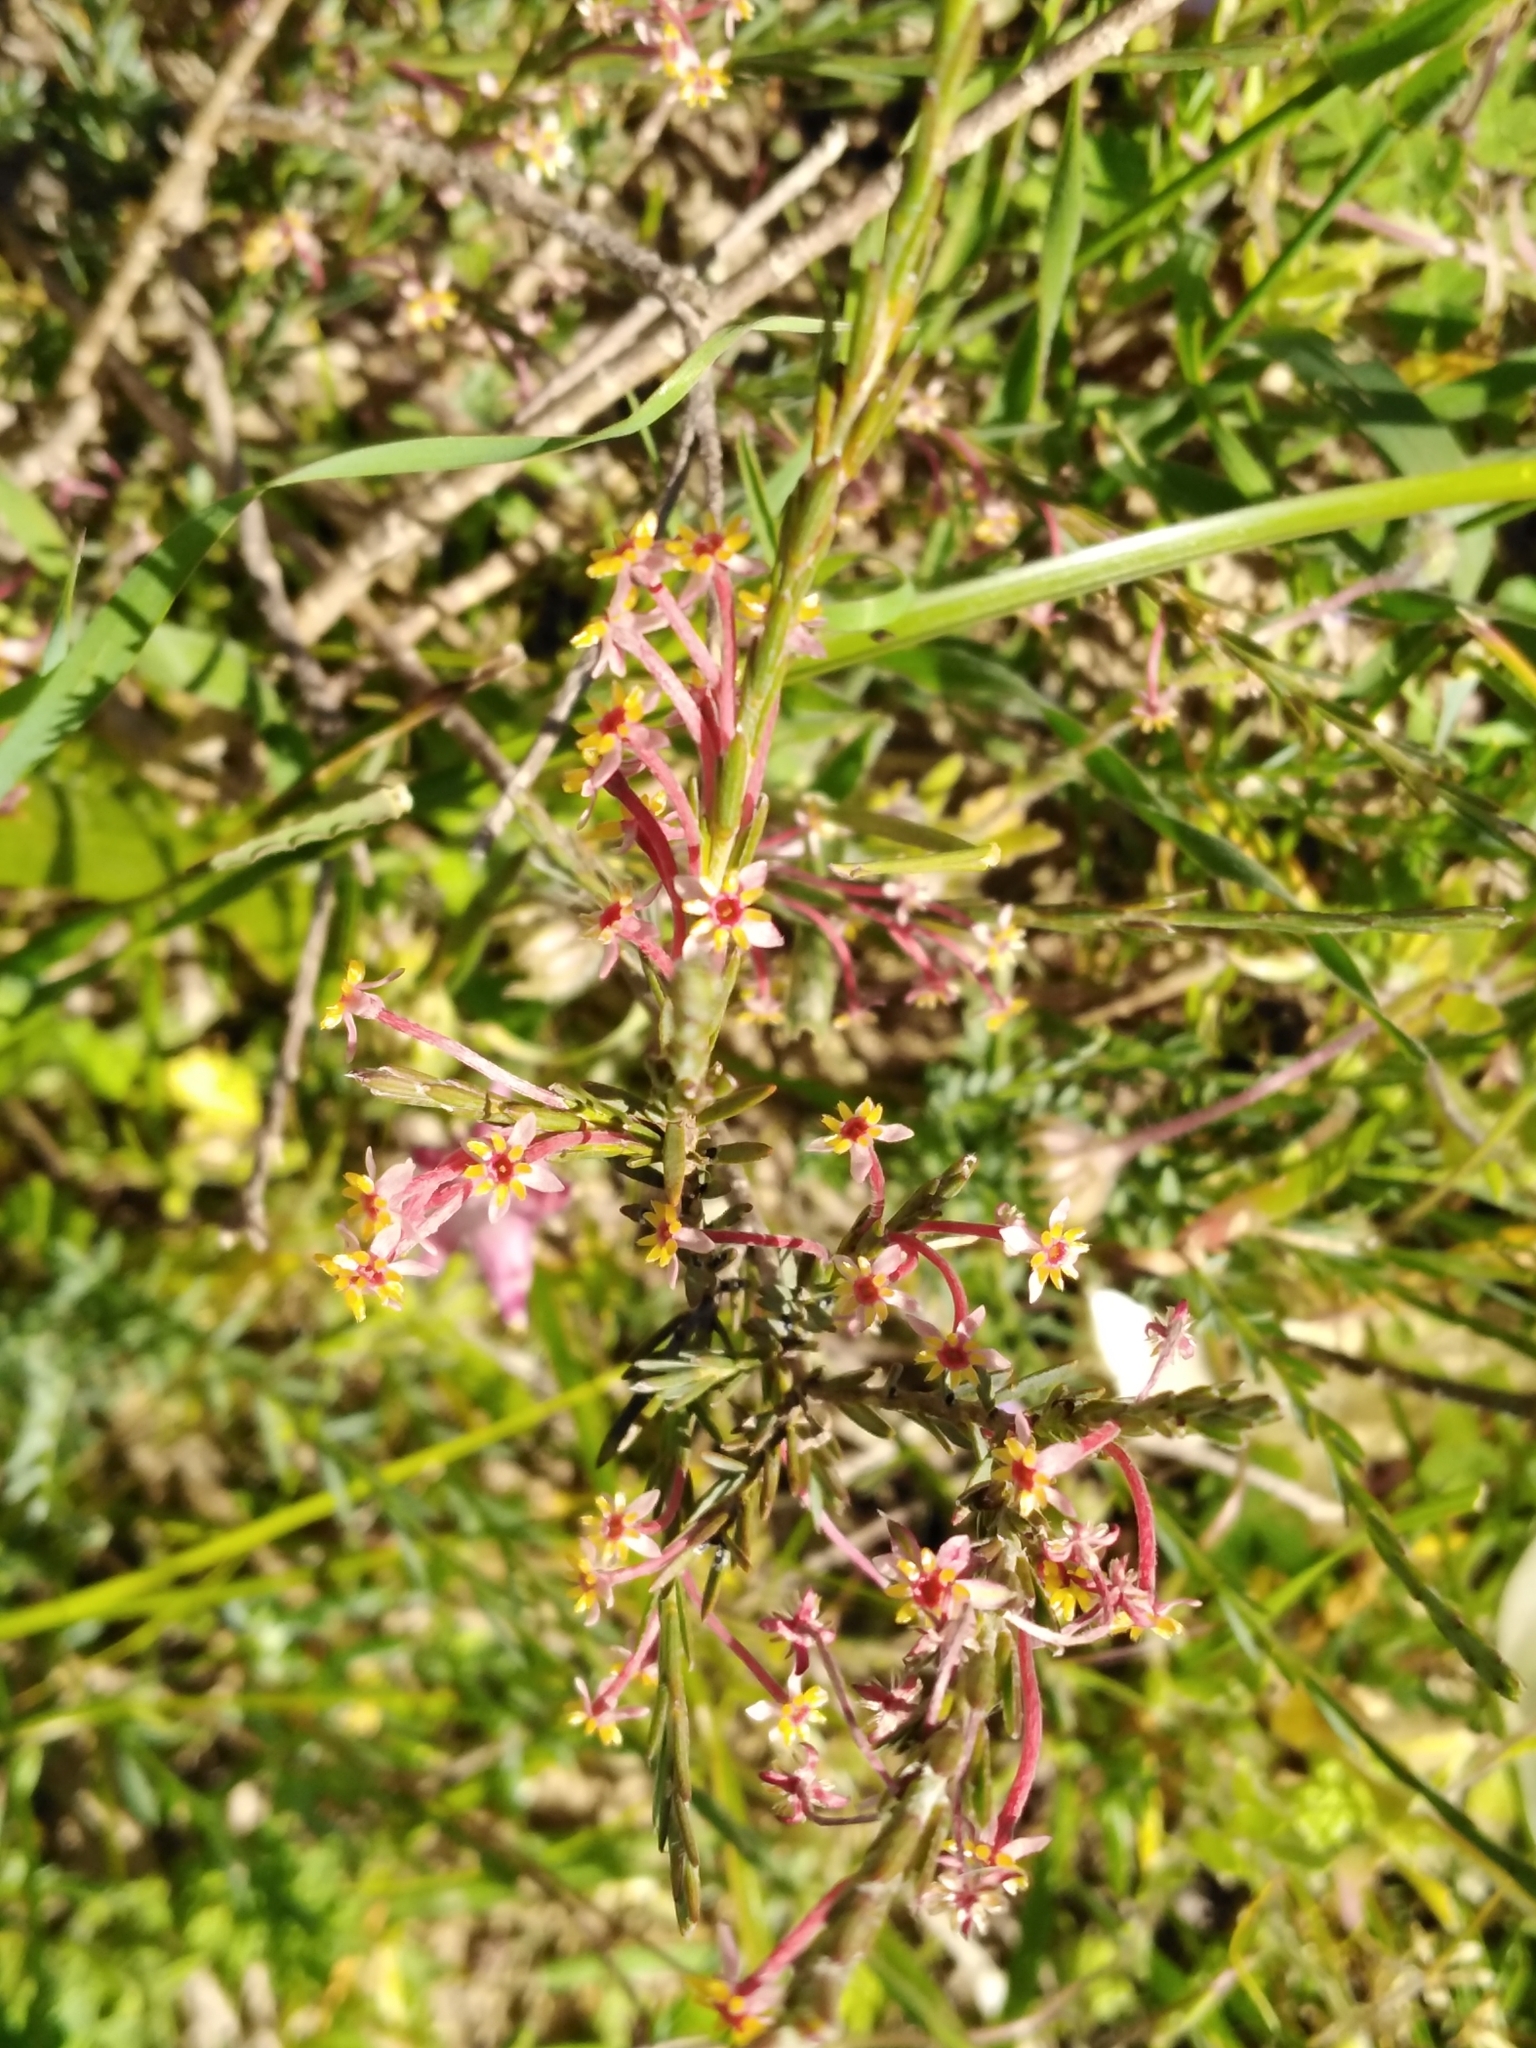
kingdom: Plantae
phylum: Tracheophyta
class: Magnoliopsida
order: Malvales
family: Thymelaeaceae
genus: Struthiola
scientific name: Struthiola ciliata
